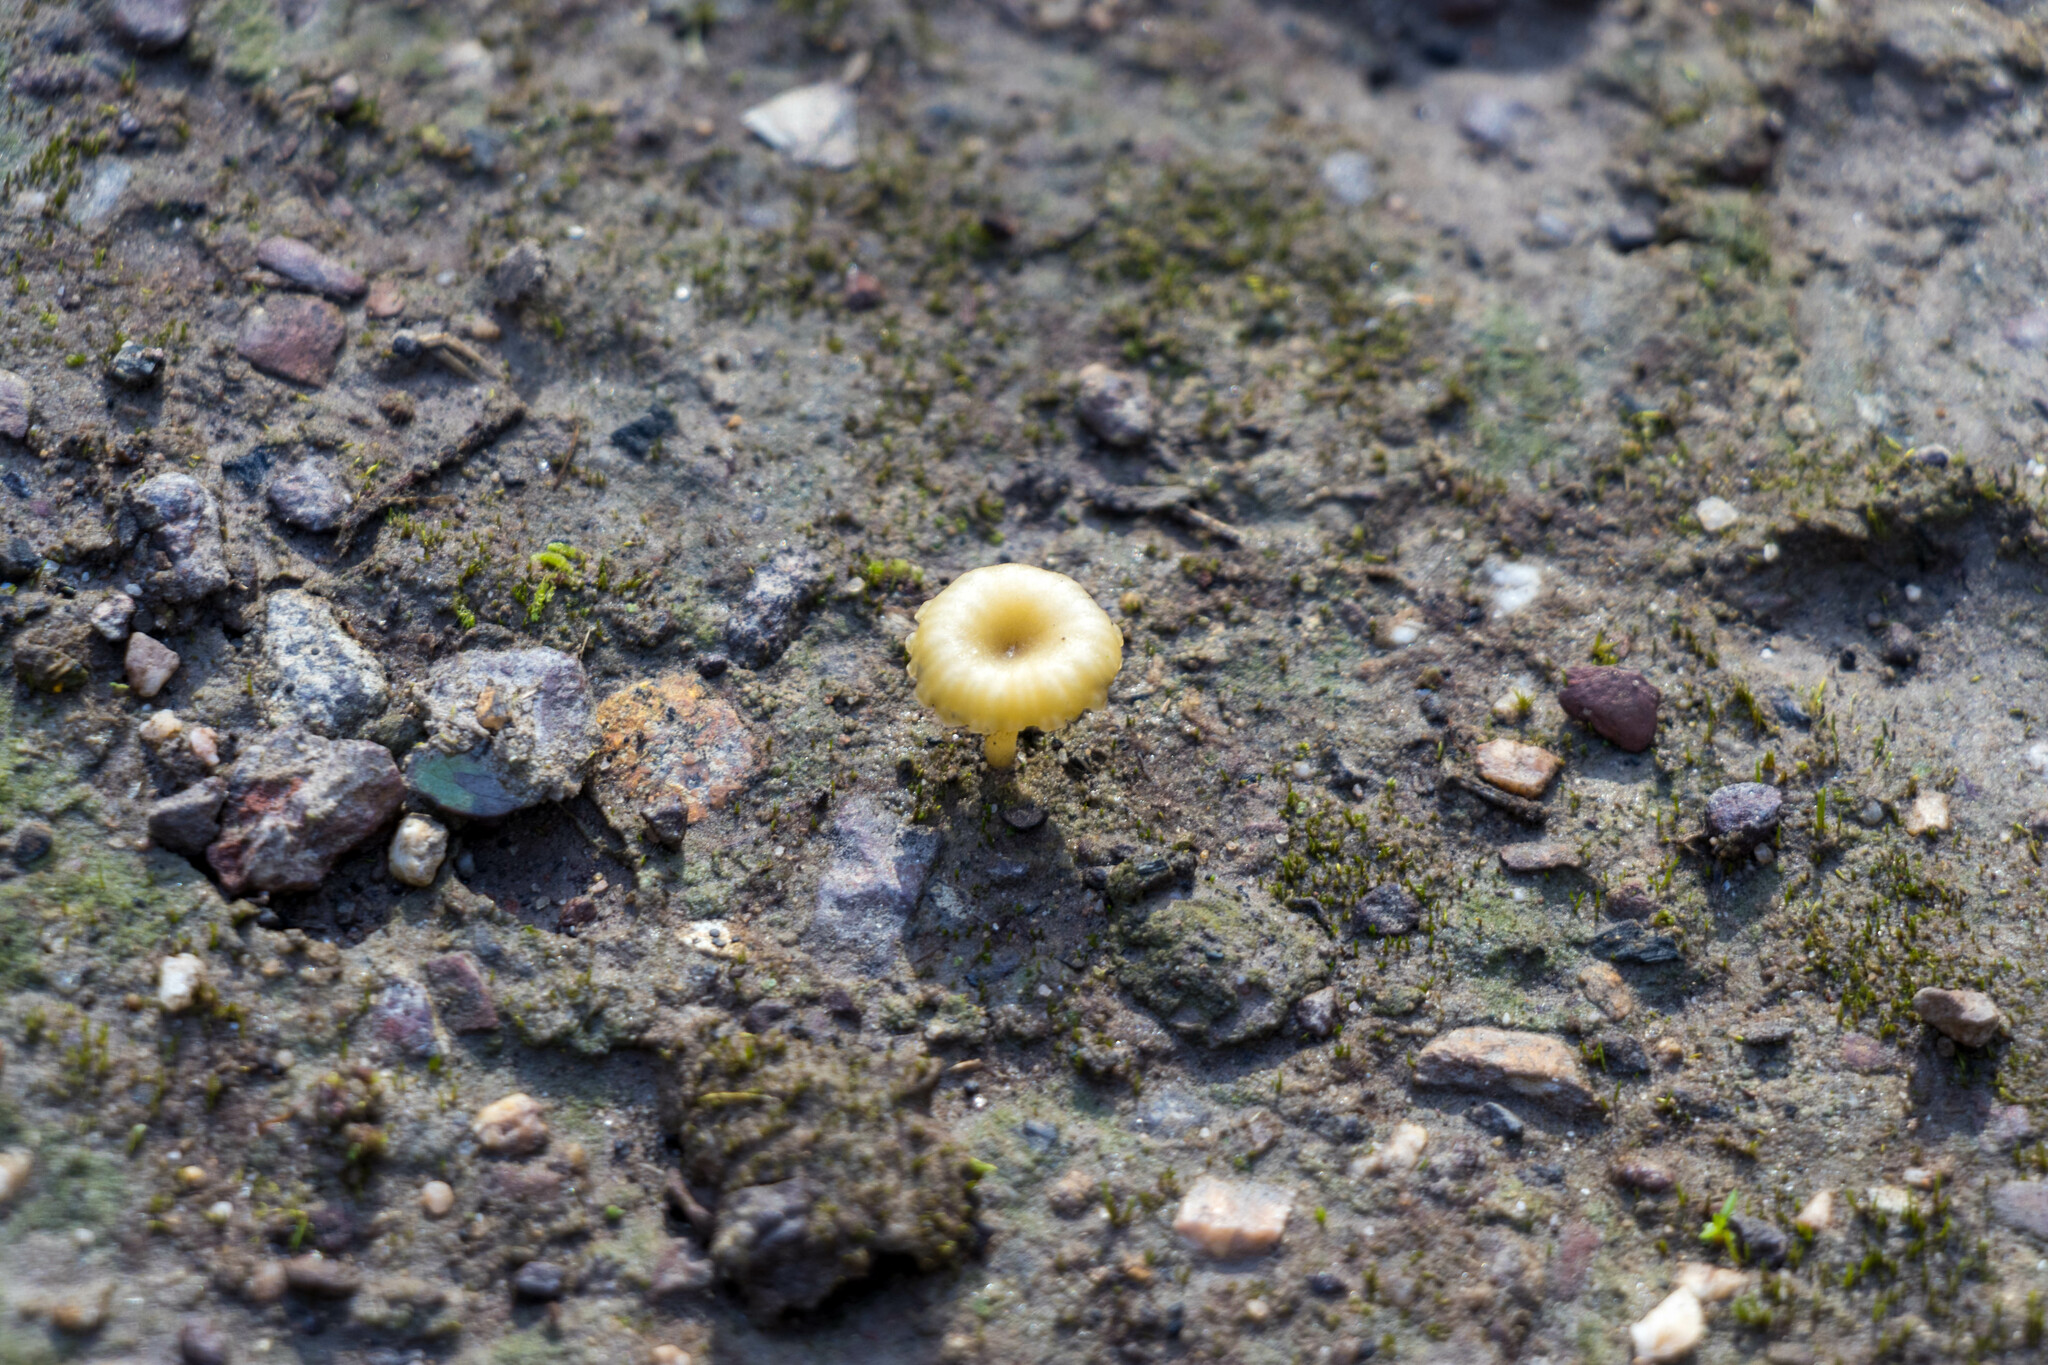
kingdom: Fungi
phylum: Basidiomycota
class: Agaricomycetes
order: Agaricales
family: Hygrophoraceae
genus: Lichenomphalia
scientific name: Lichenomphalia chromacea
